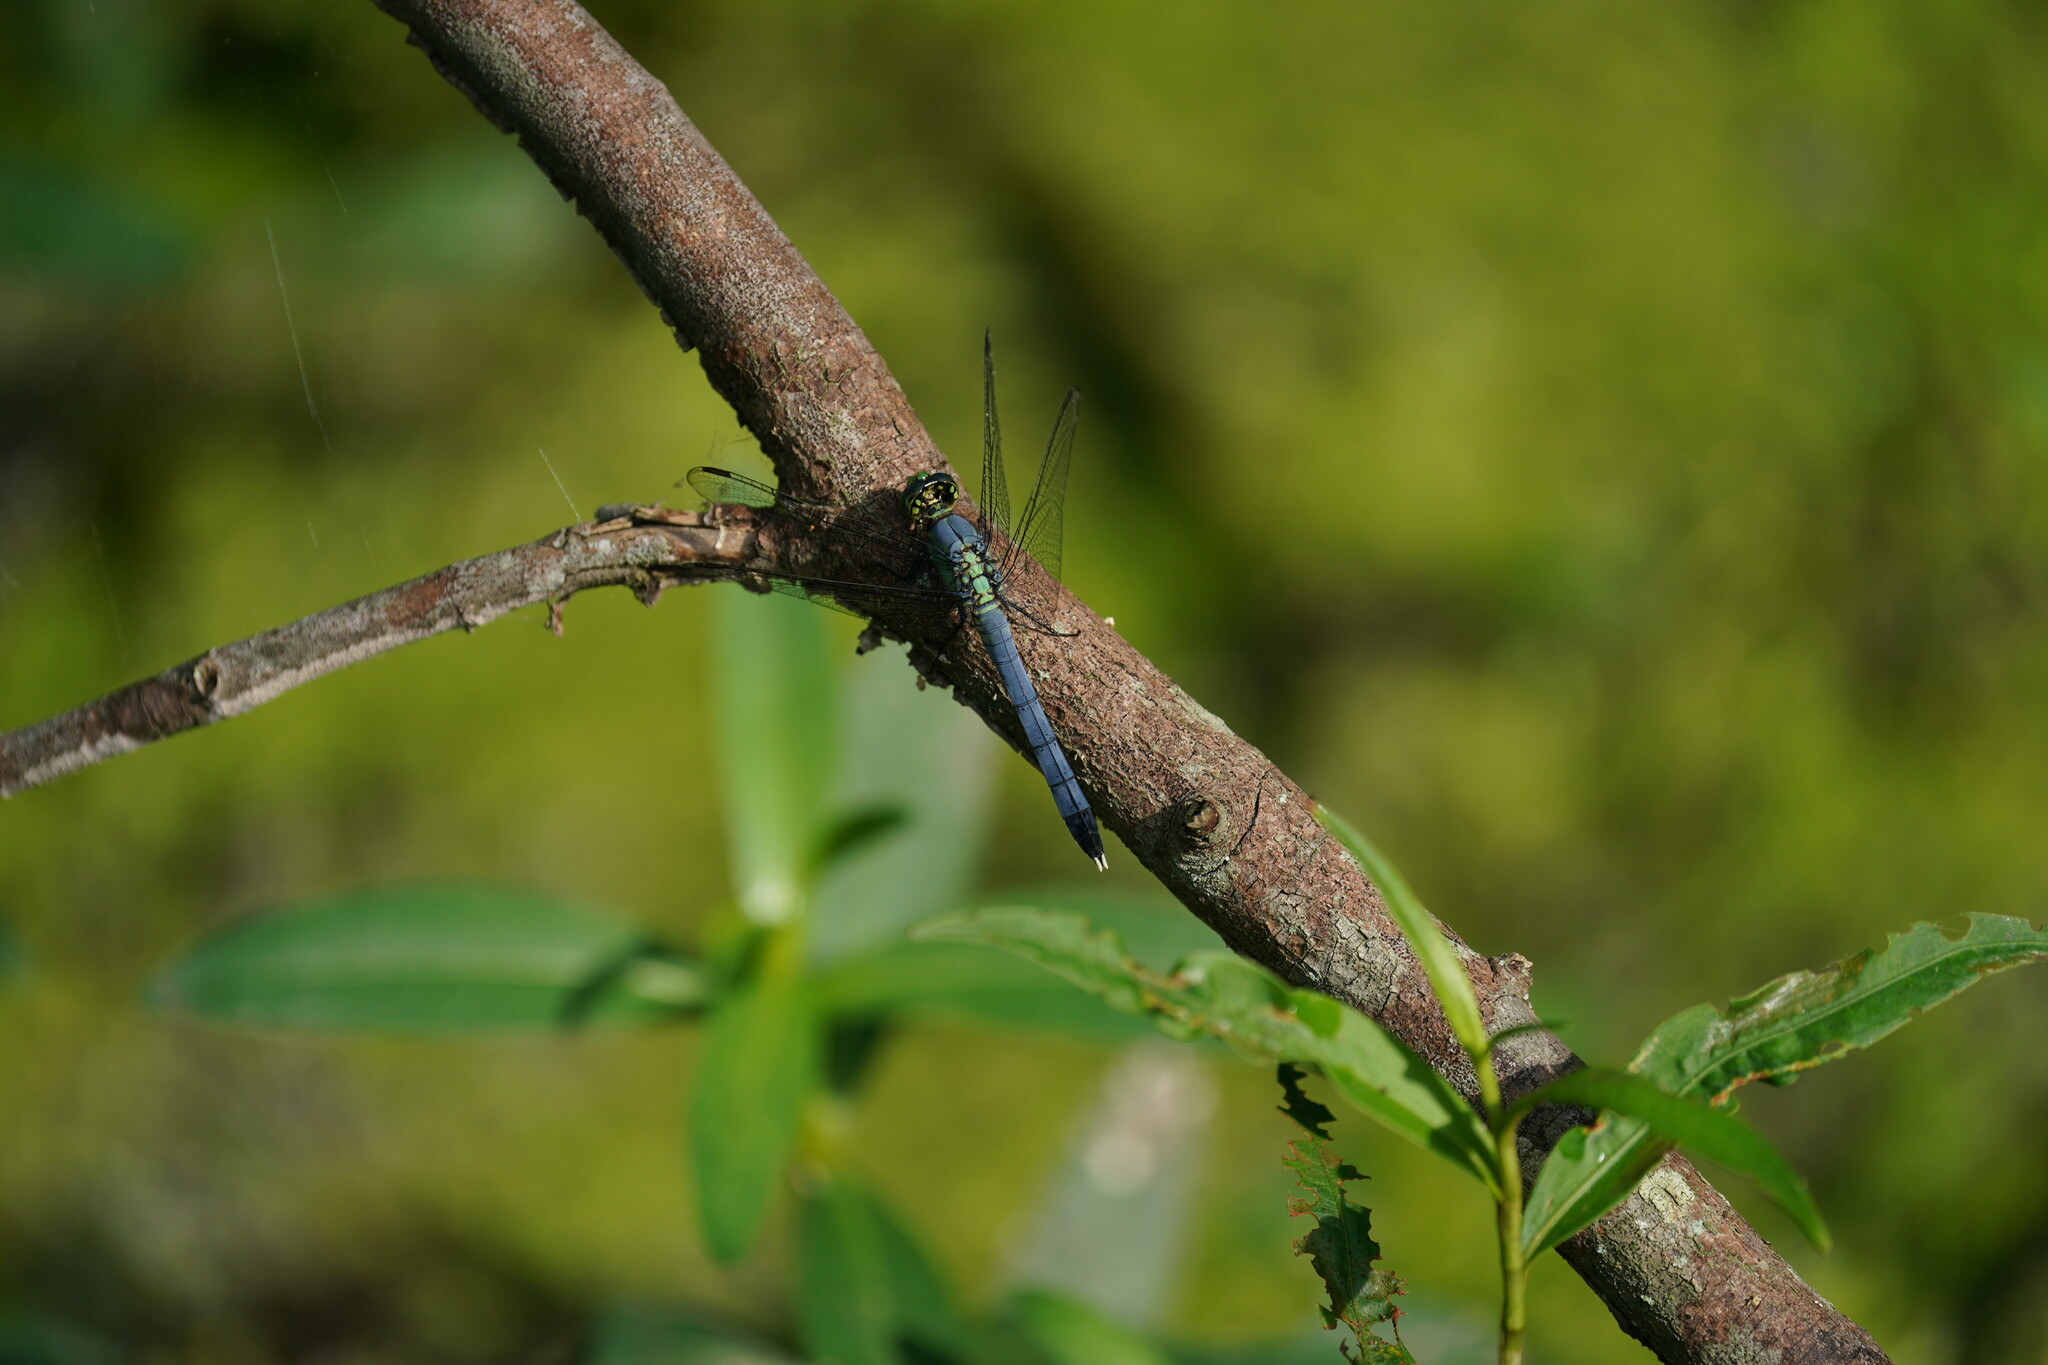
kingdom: Animalia
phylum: Arthropoda
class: Insecta
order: Odonata
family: Libellulidae
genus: Erythemis
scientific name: Erythemis simplicicollis
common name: Eastern pondhawk
